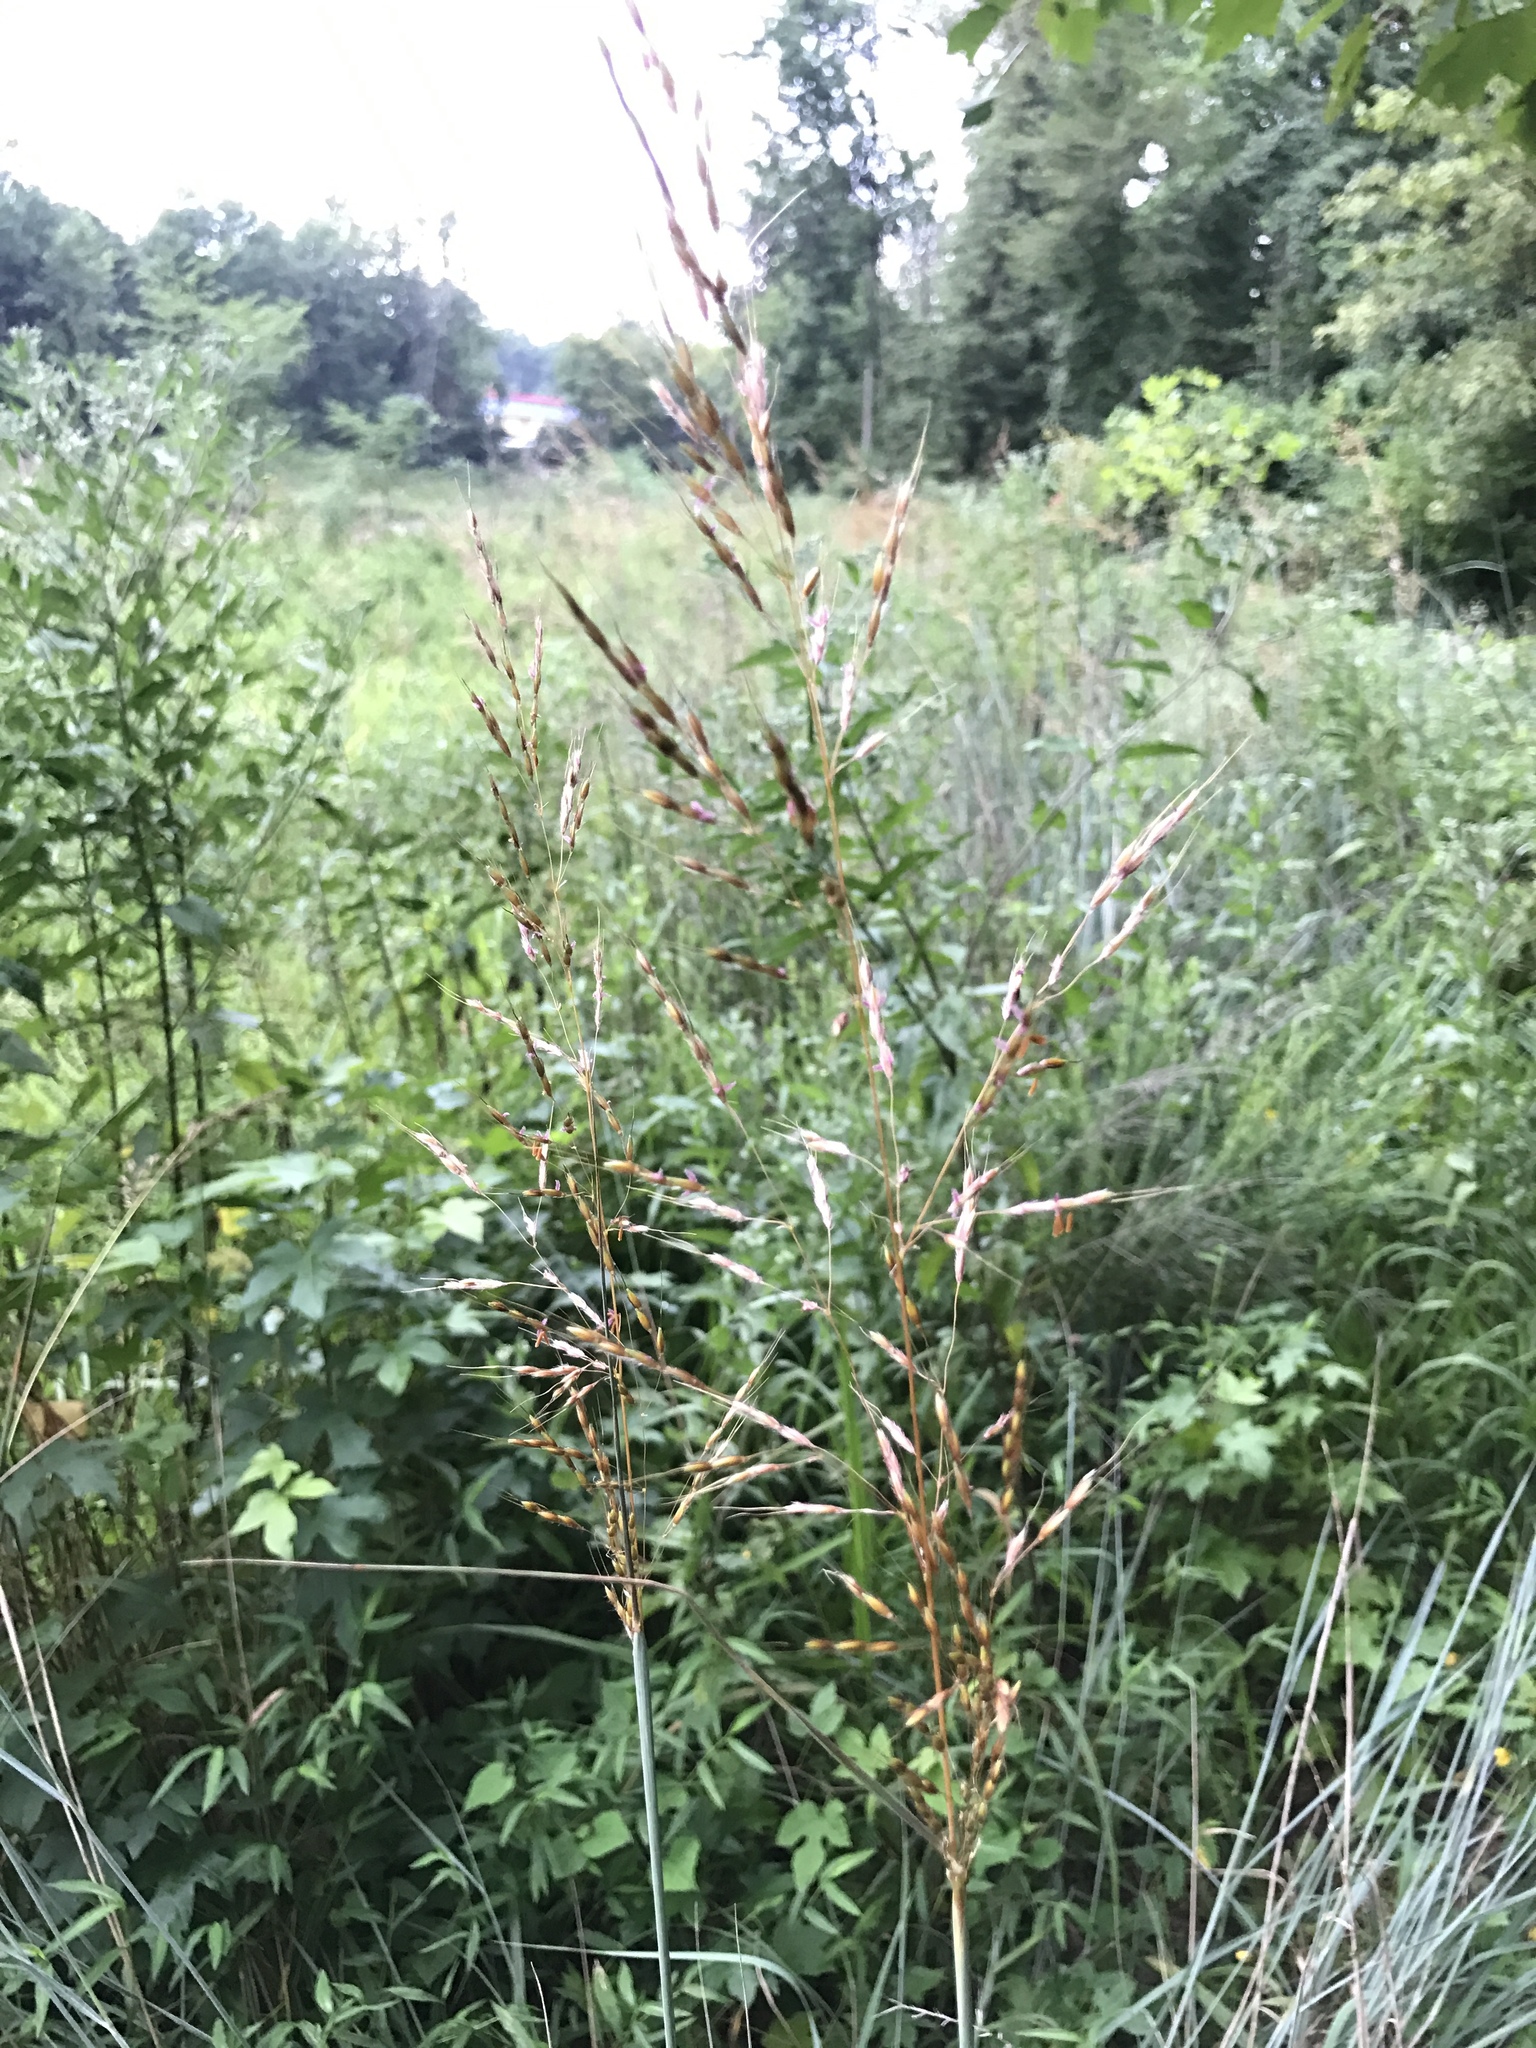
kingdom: Plantae
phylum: Tracheophyta
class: Liliopsida
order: Poales
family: Poaceae
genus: Sorghastrum
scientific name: Sorghastrum nutans
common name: Indian grass
